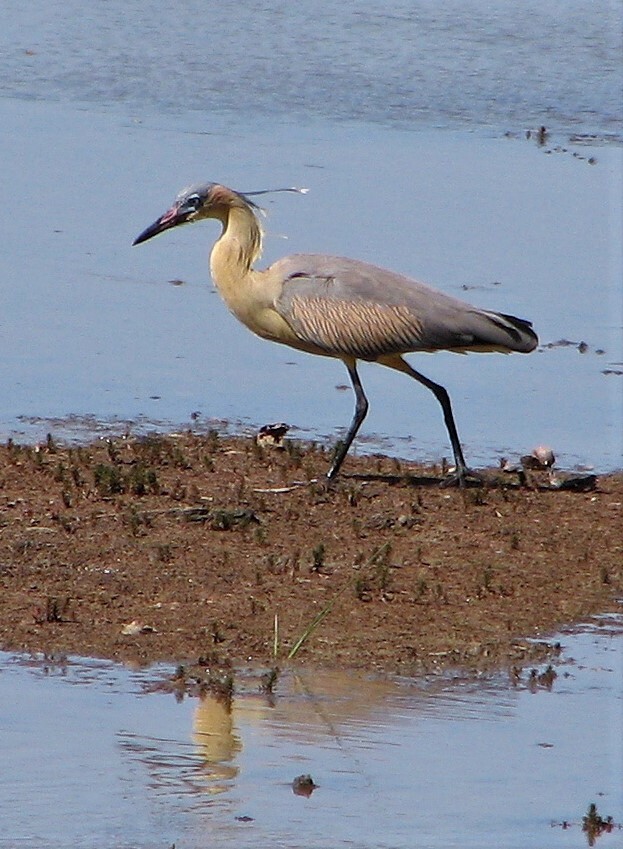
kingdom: Animalia
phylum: Chordata
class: Aves
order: Pelecaniformes
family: Ardeidae
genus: Syrigma
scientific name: Syrigma sibilatrix
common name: Whistling heron
